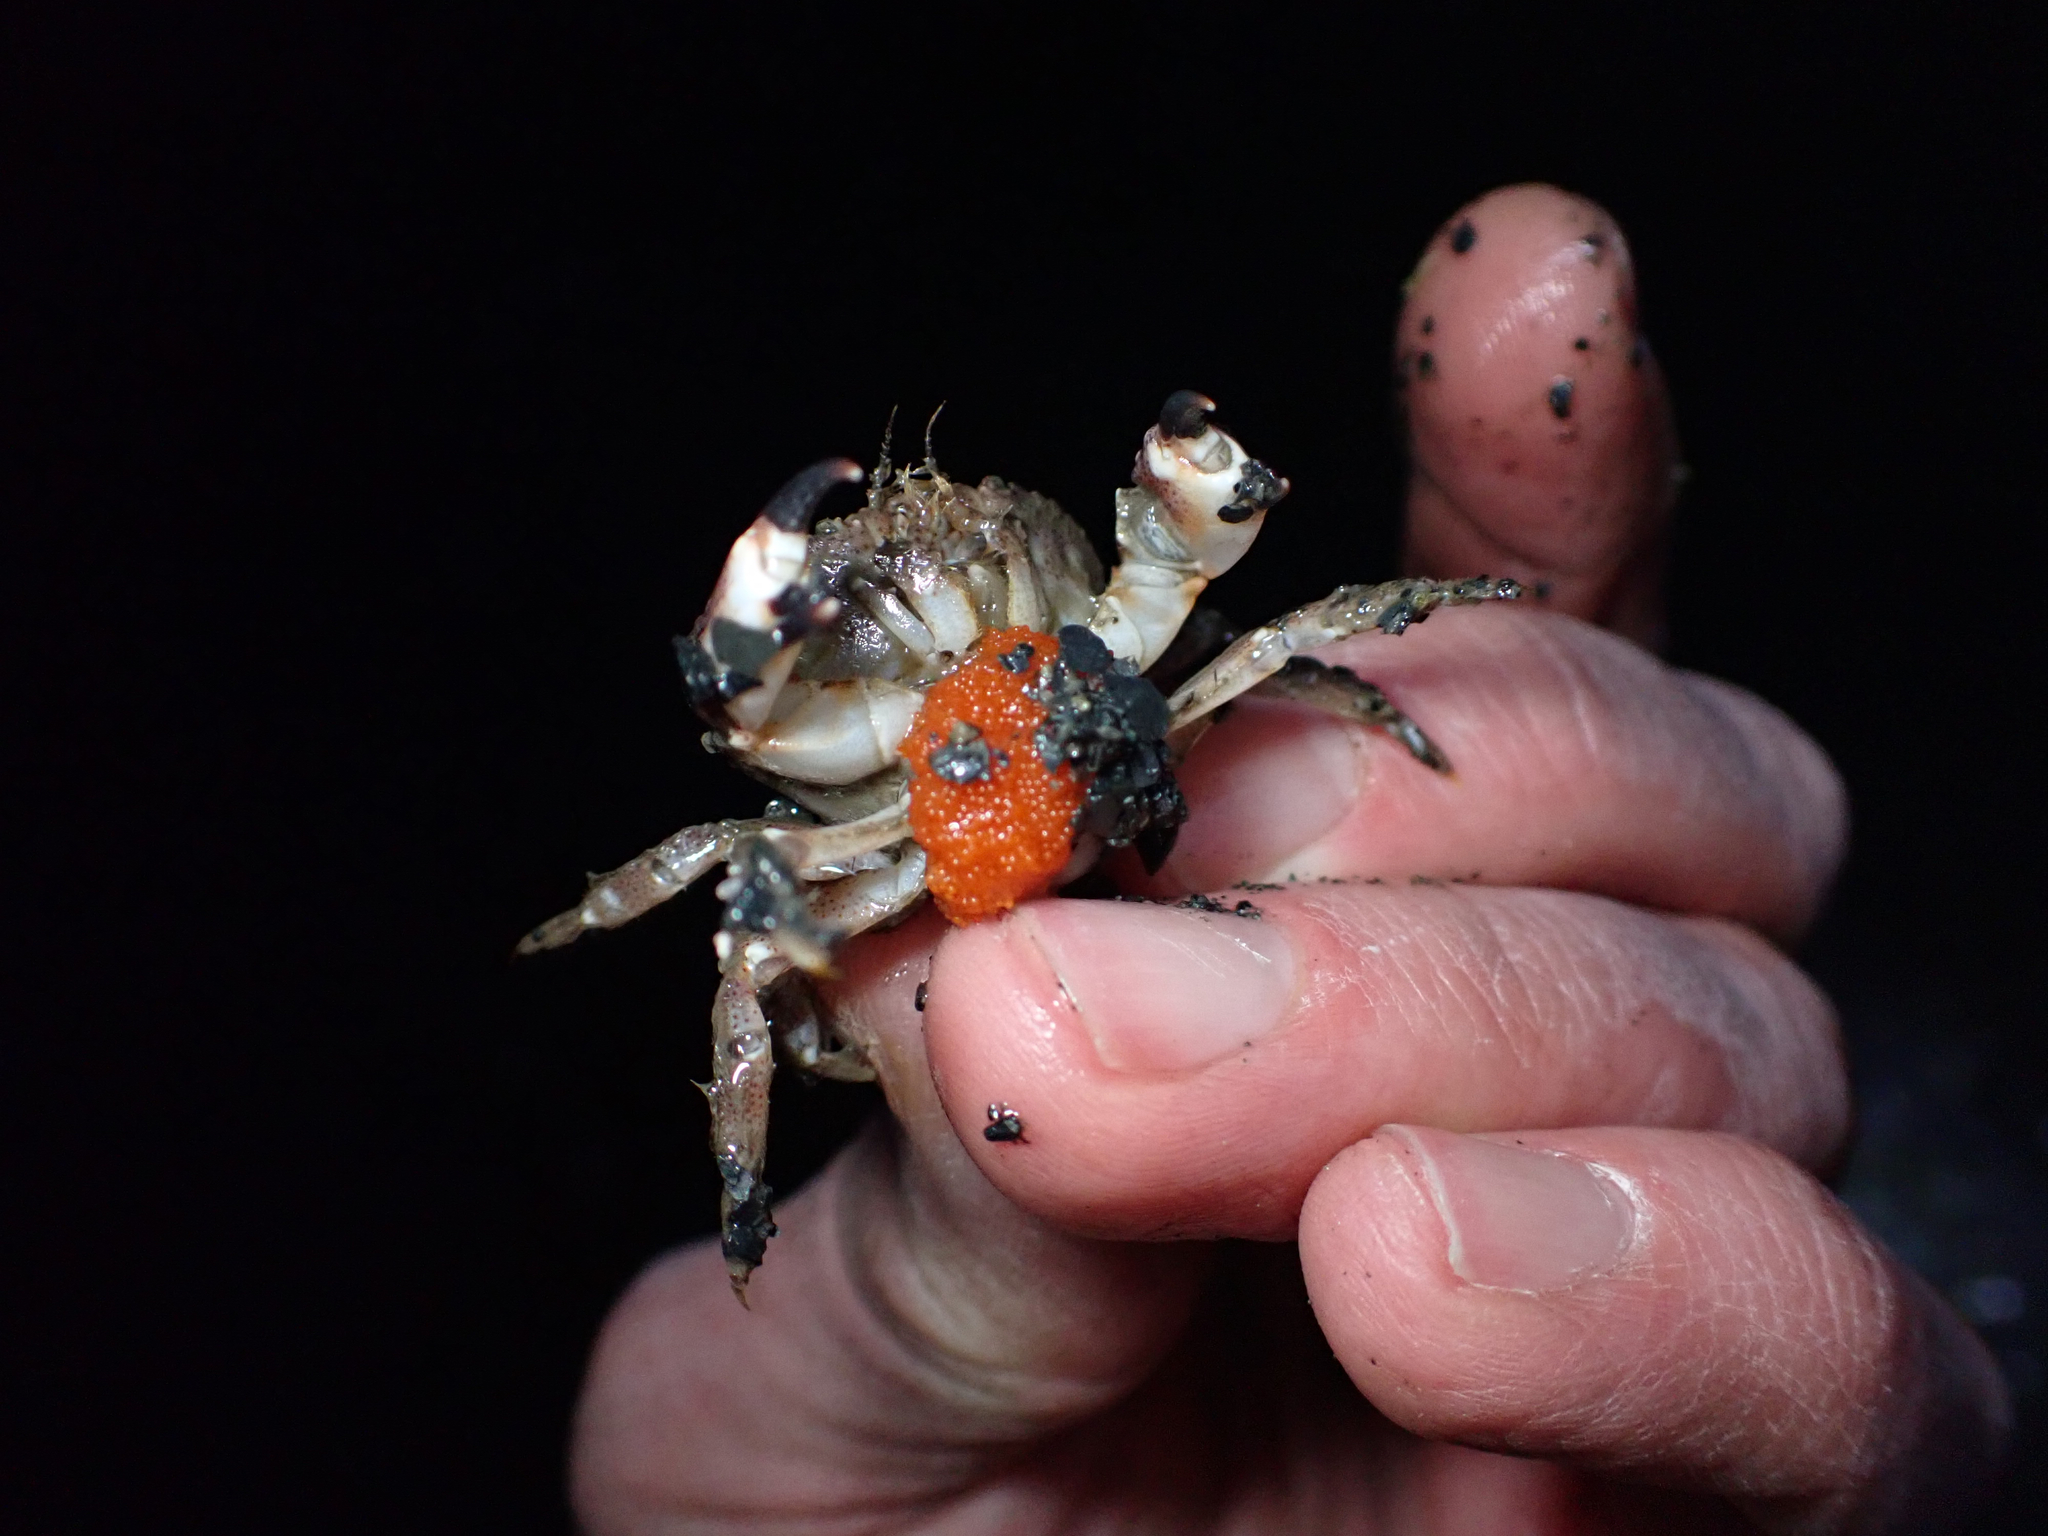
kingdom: Animalia
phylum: Arthropoda
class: Malacostraca
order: Decapoda
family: Cancridae
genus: Glebocarcinus
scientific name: Glebocarcinus oregonensis
